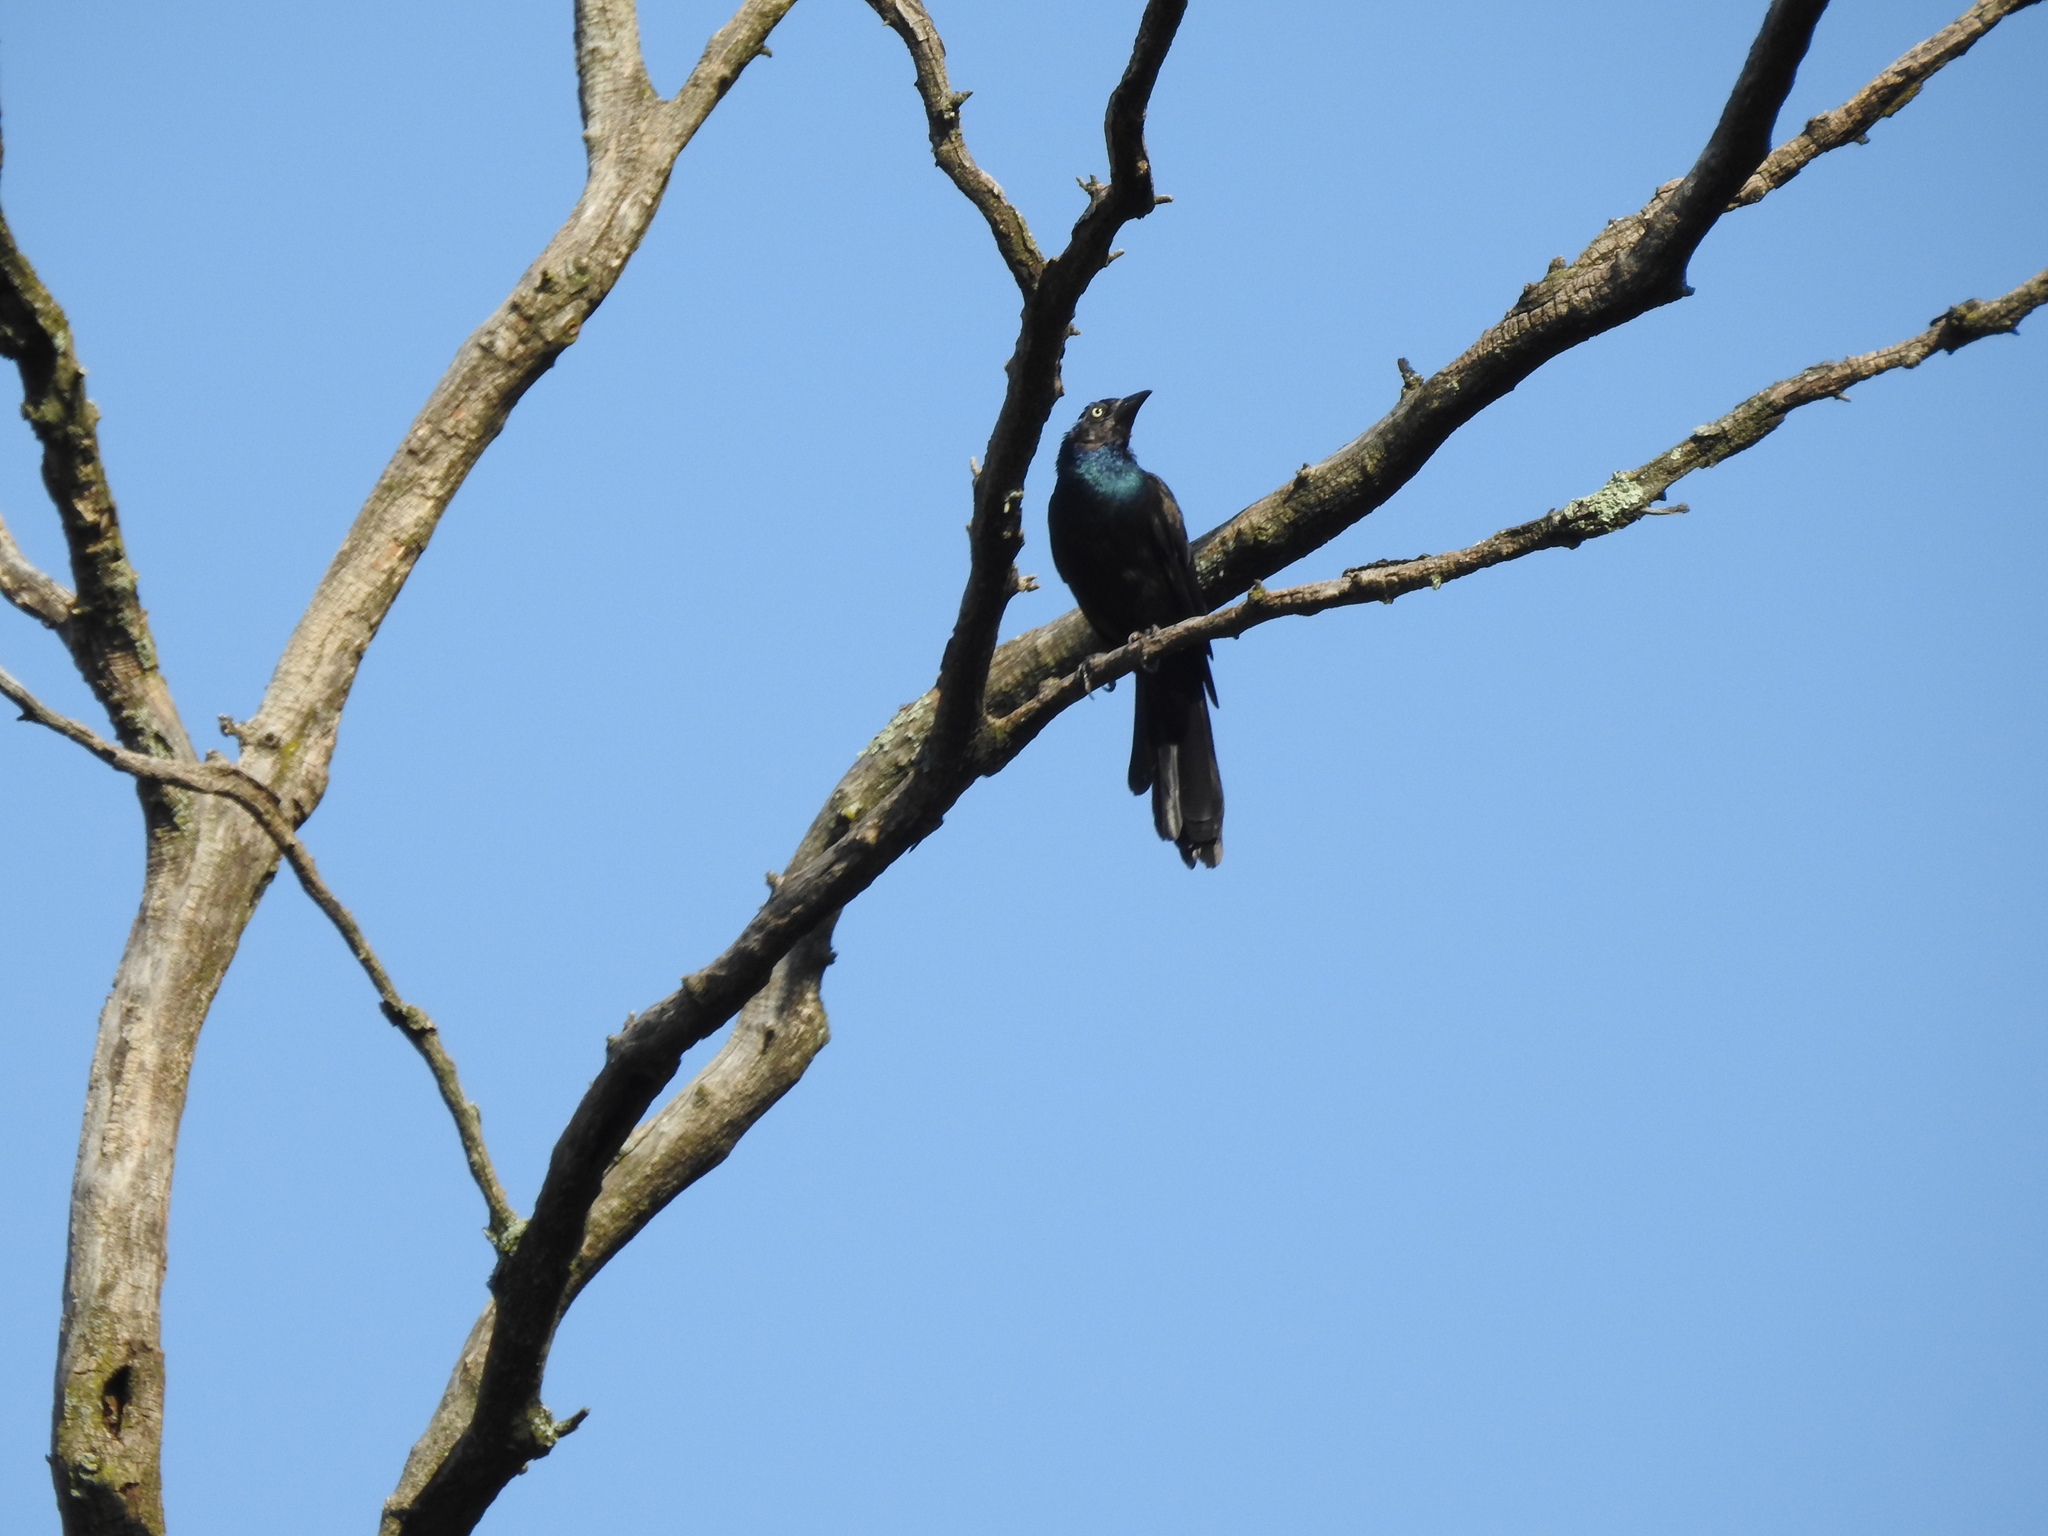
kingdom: Animalia
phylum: Chordata
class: Aves
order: Passeriformes
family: Icteridae
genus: Quiscalus
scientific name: Quiscalus quiscula
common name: Common grackle
